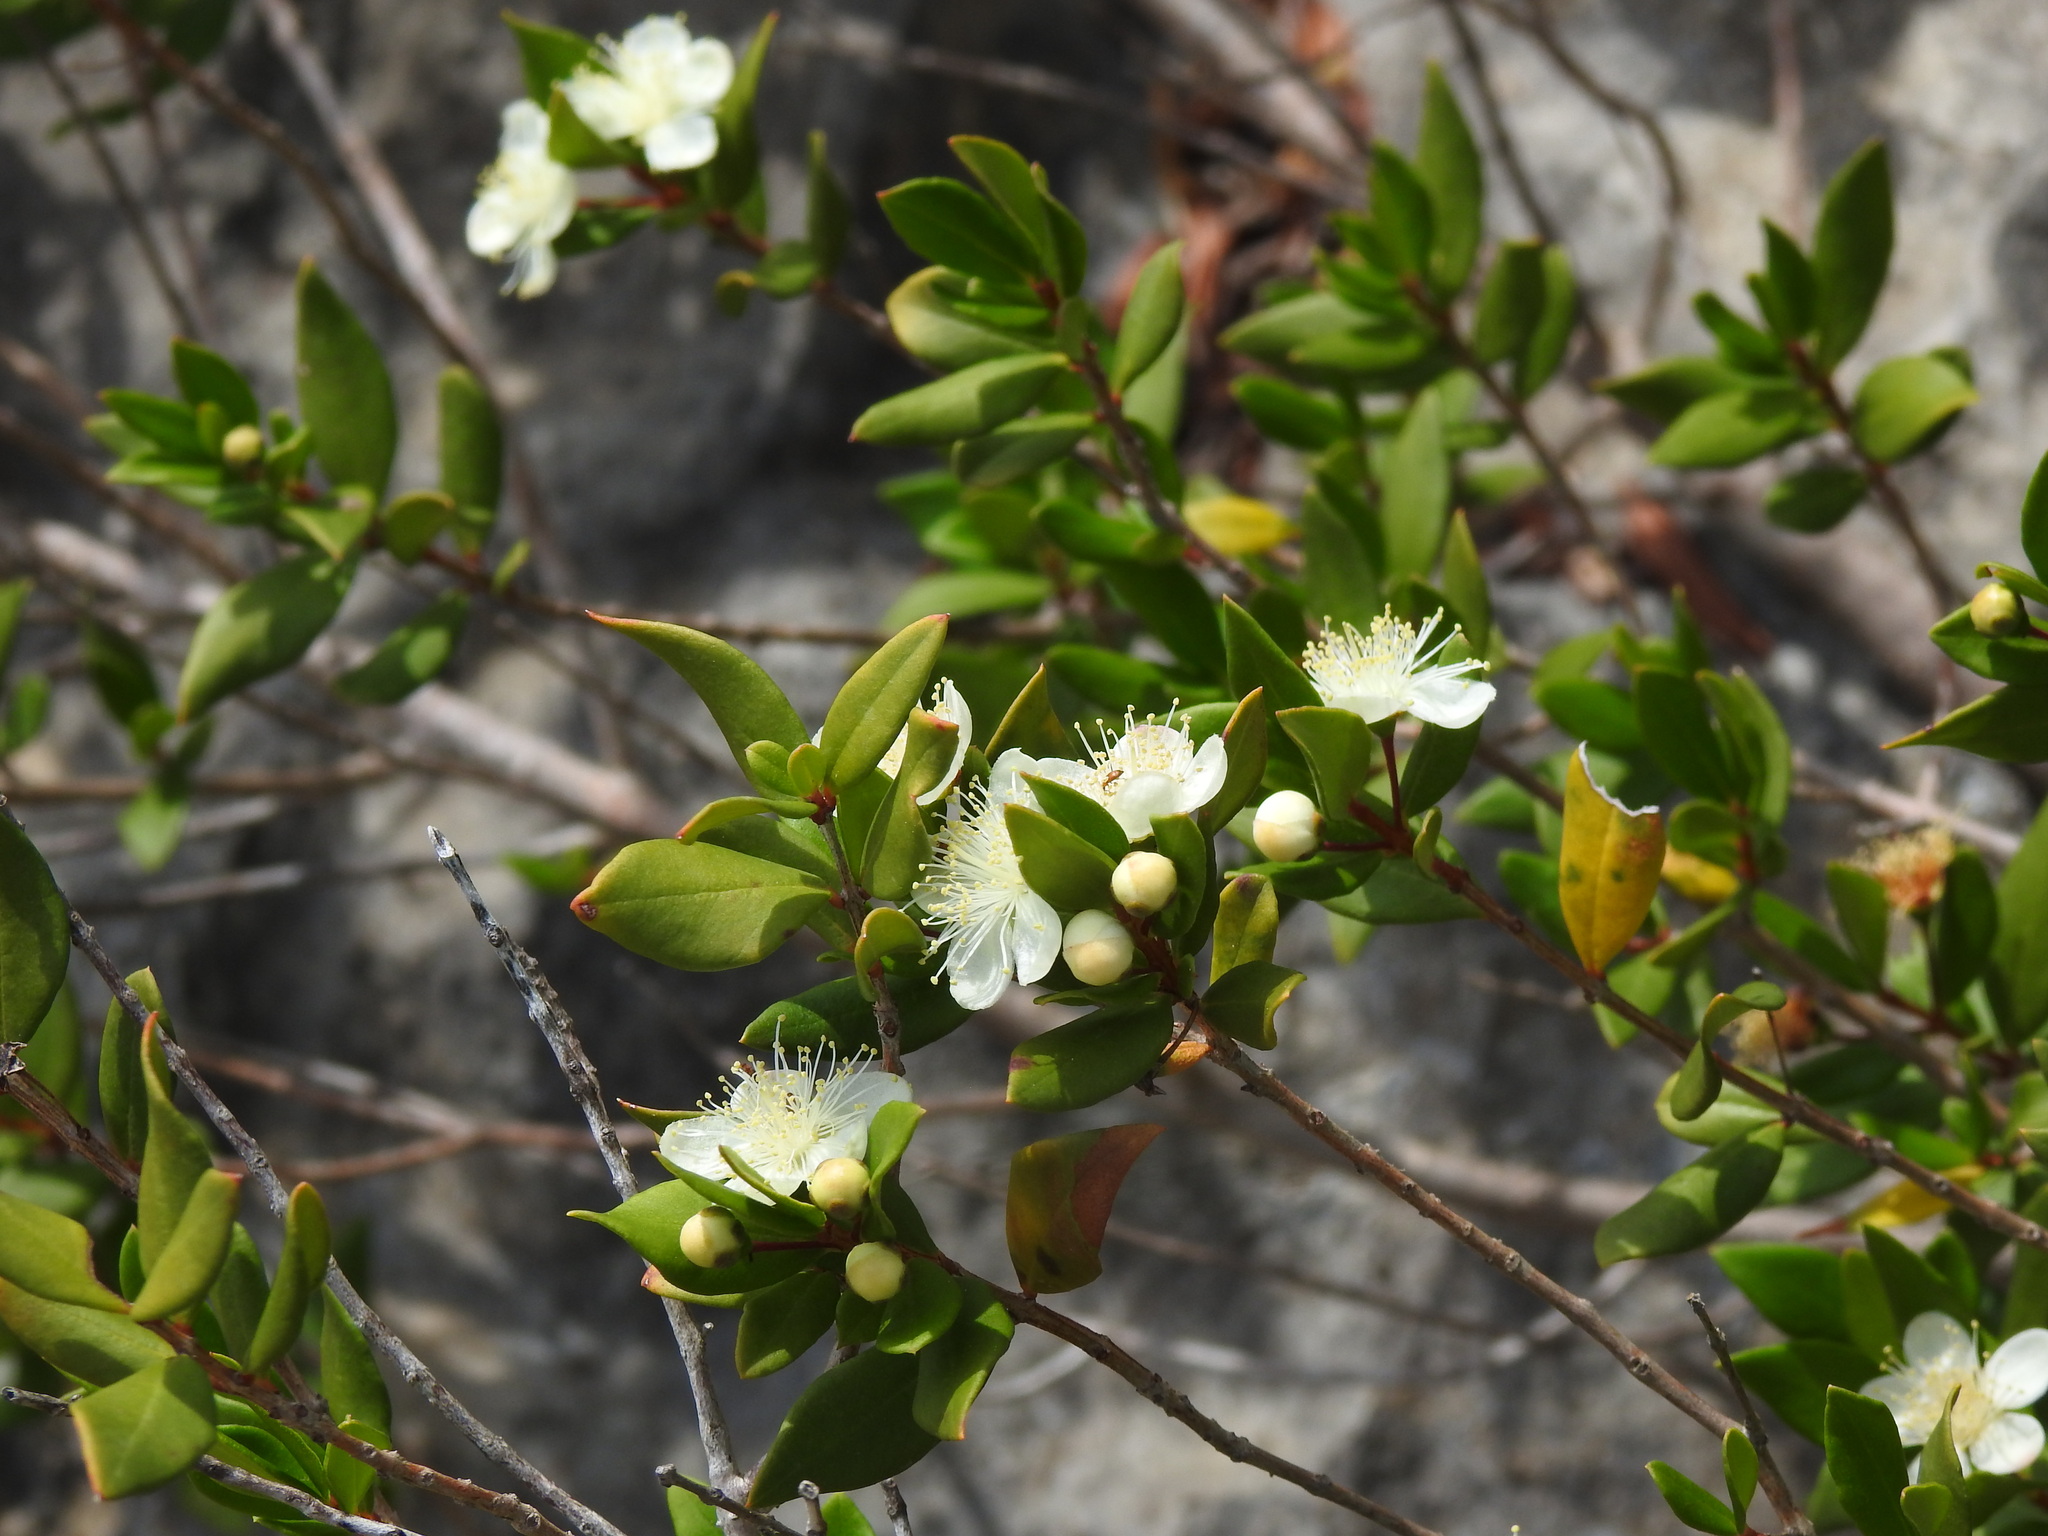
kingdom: Plantae
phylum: Tracheophyta
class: Magnoliopsida
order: Myrtales
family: Myrtaceae
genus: Myrtus
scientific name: Myrtus communis
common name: Myrtle
